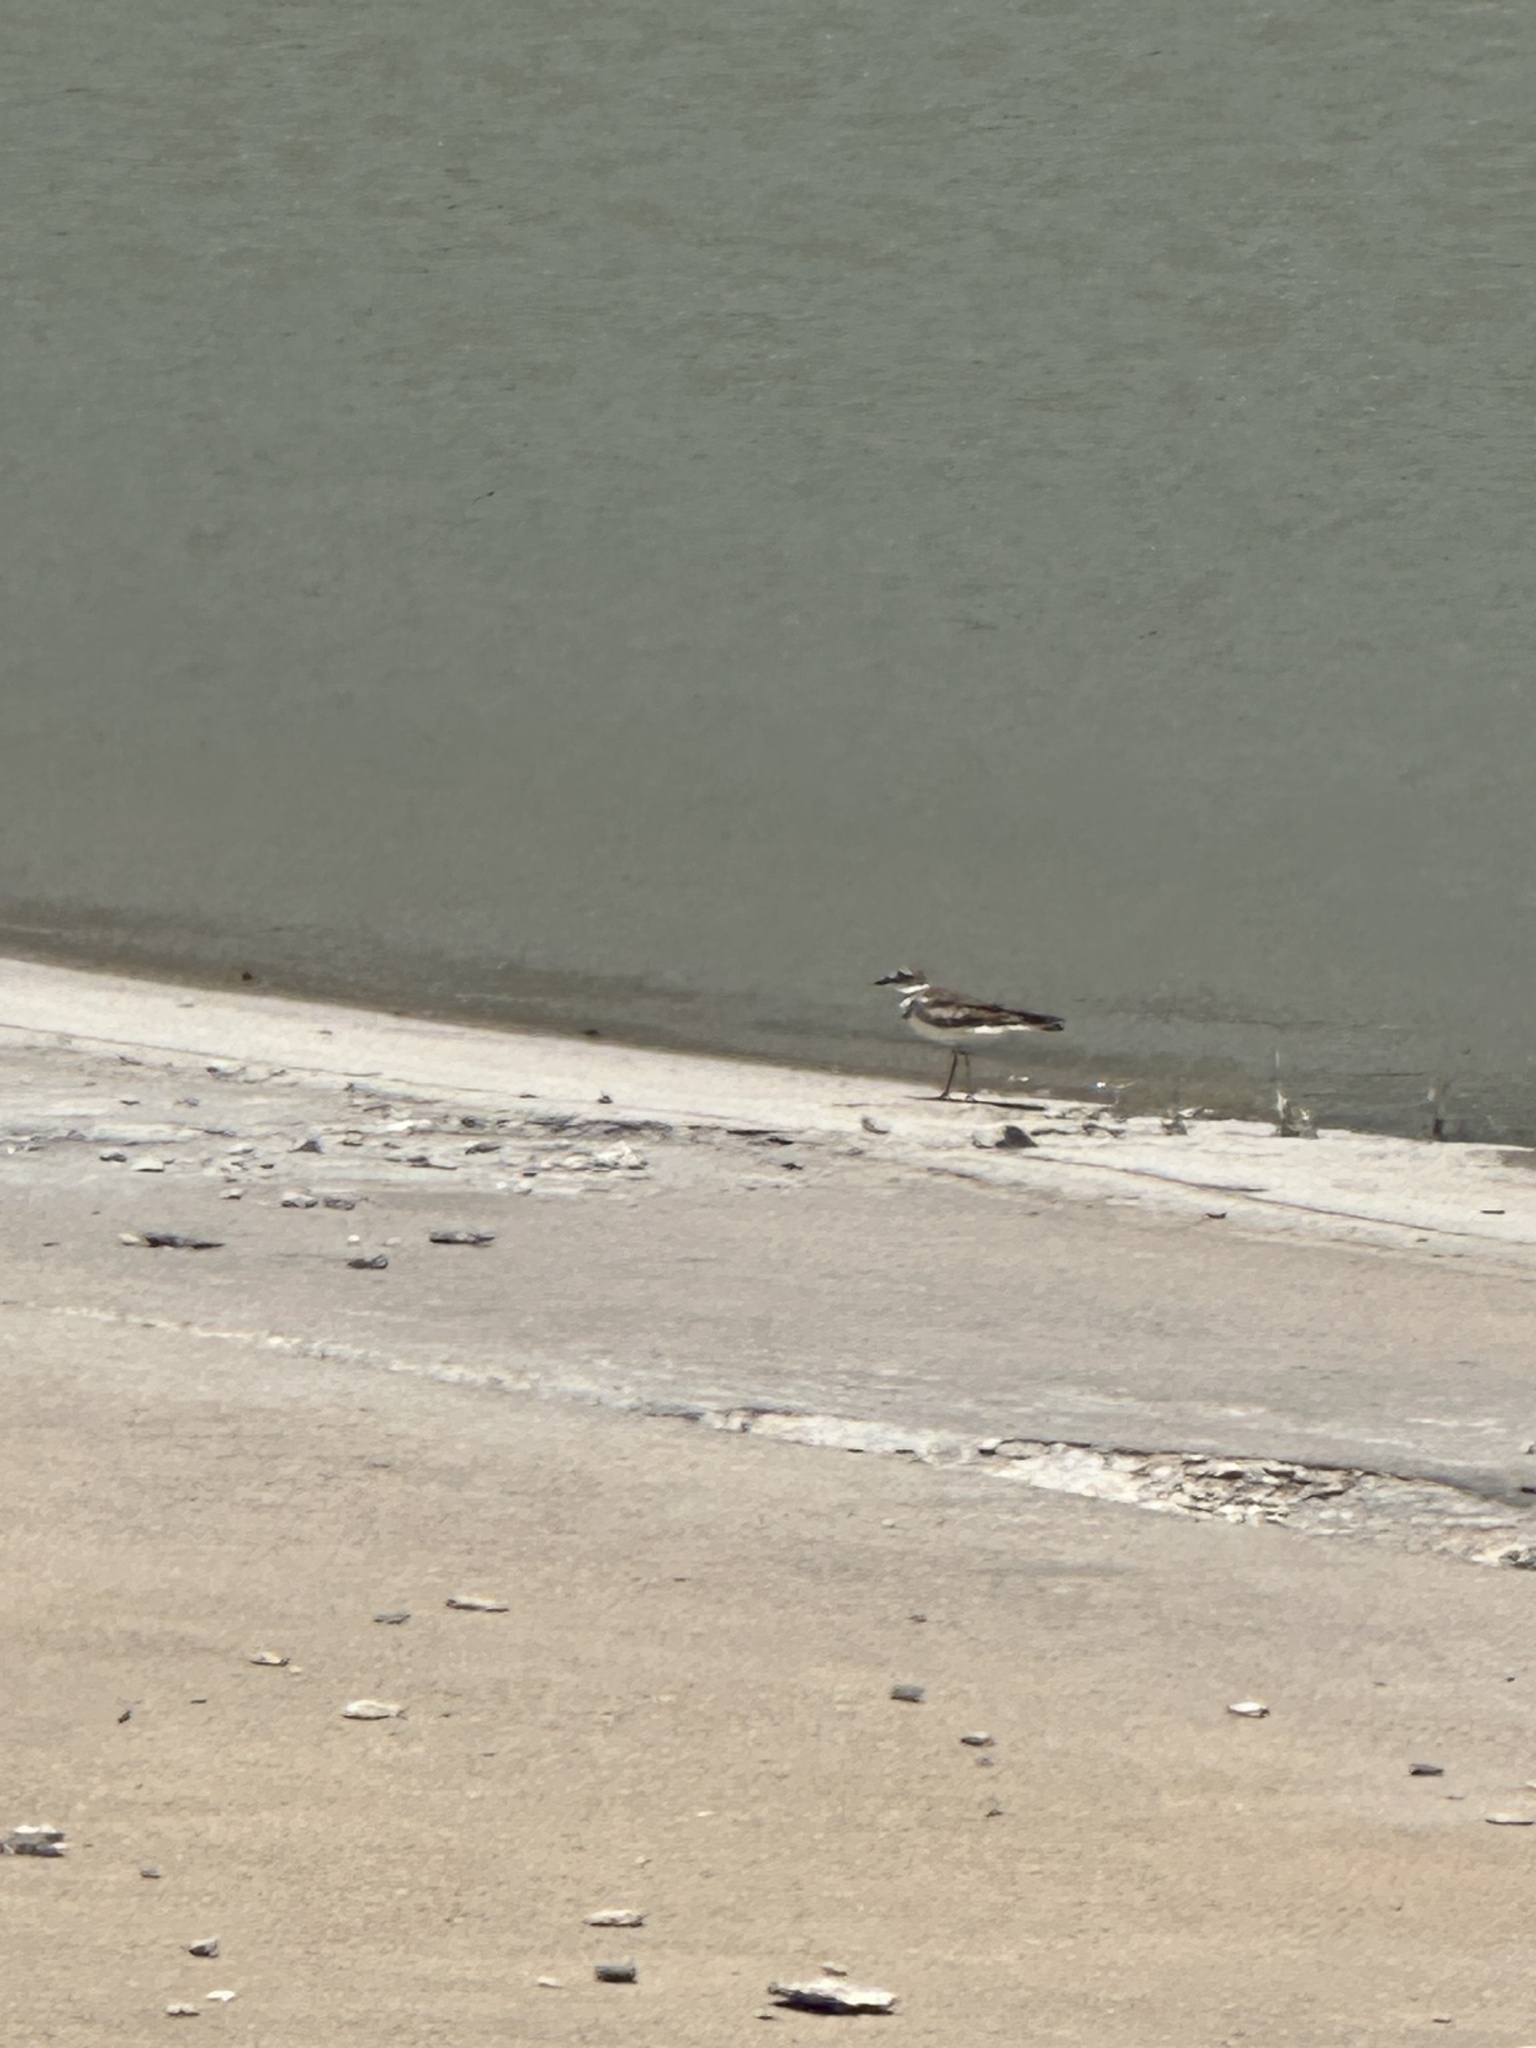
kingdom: Animalia
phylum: Chordata
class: Aves
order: Charadriiformes
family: Charadriidae
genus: Charadrius
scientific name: Charadrius vociferus
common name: Killdeer
